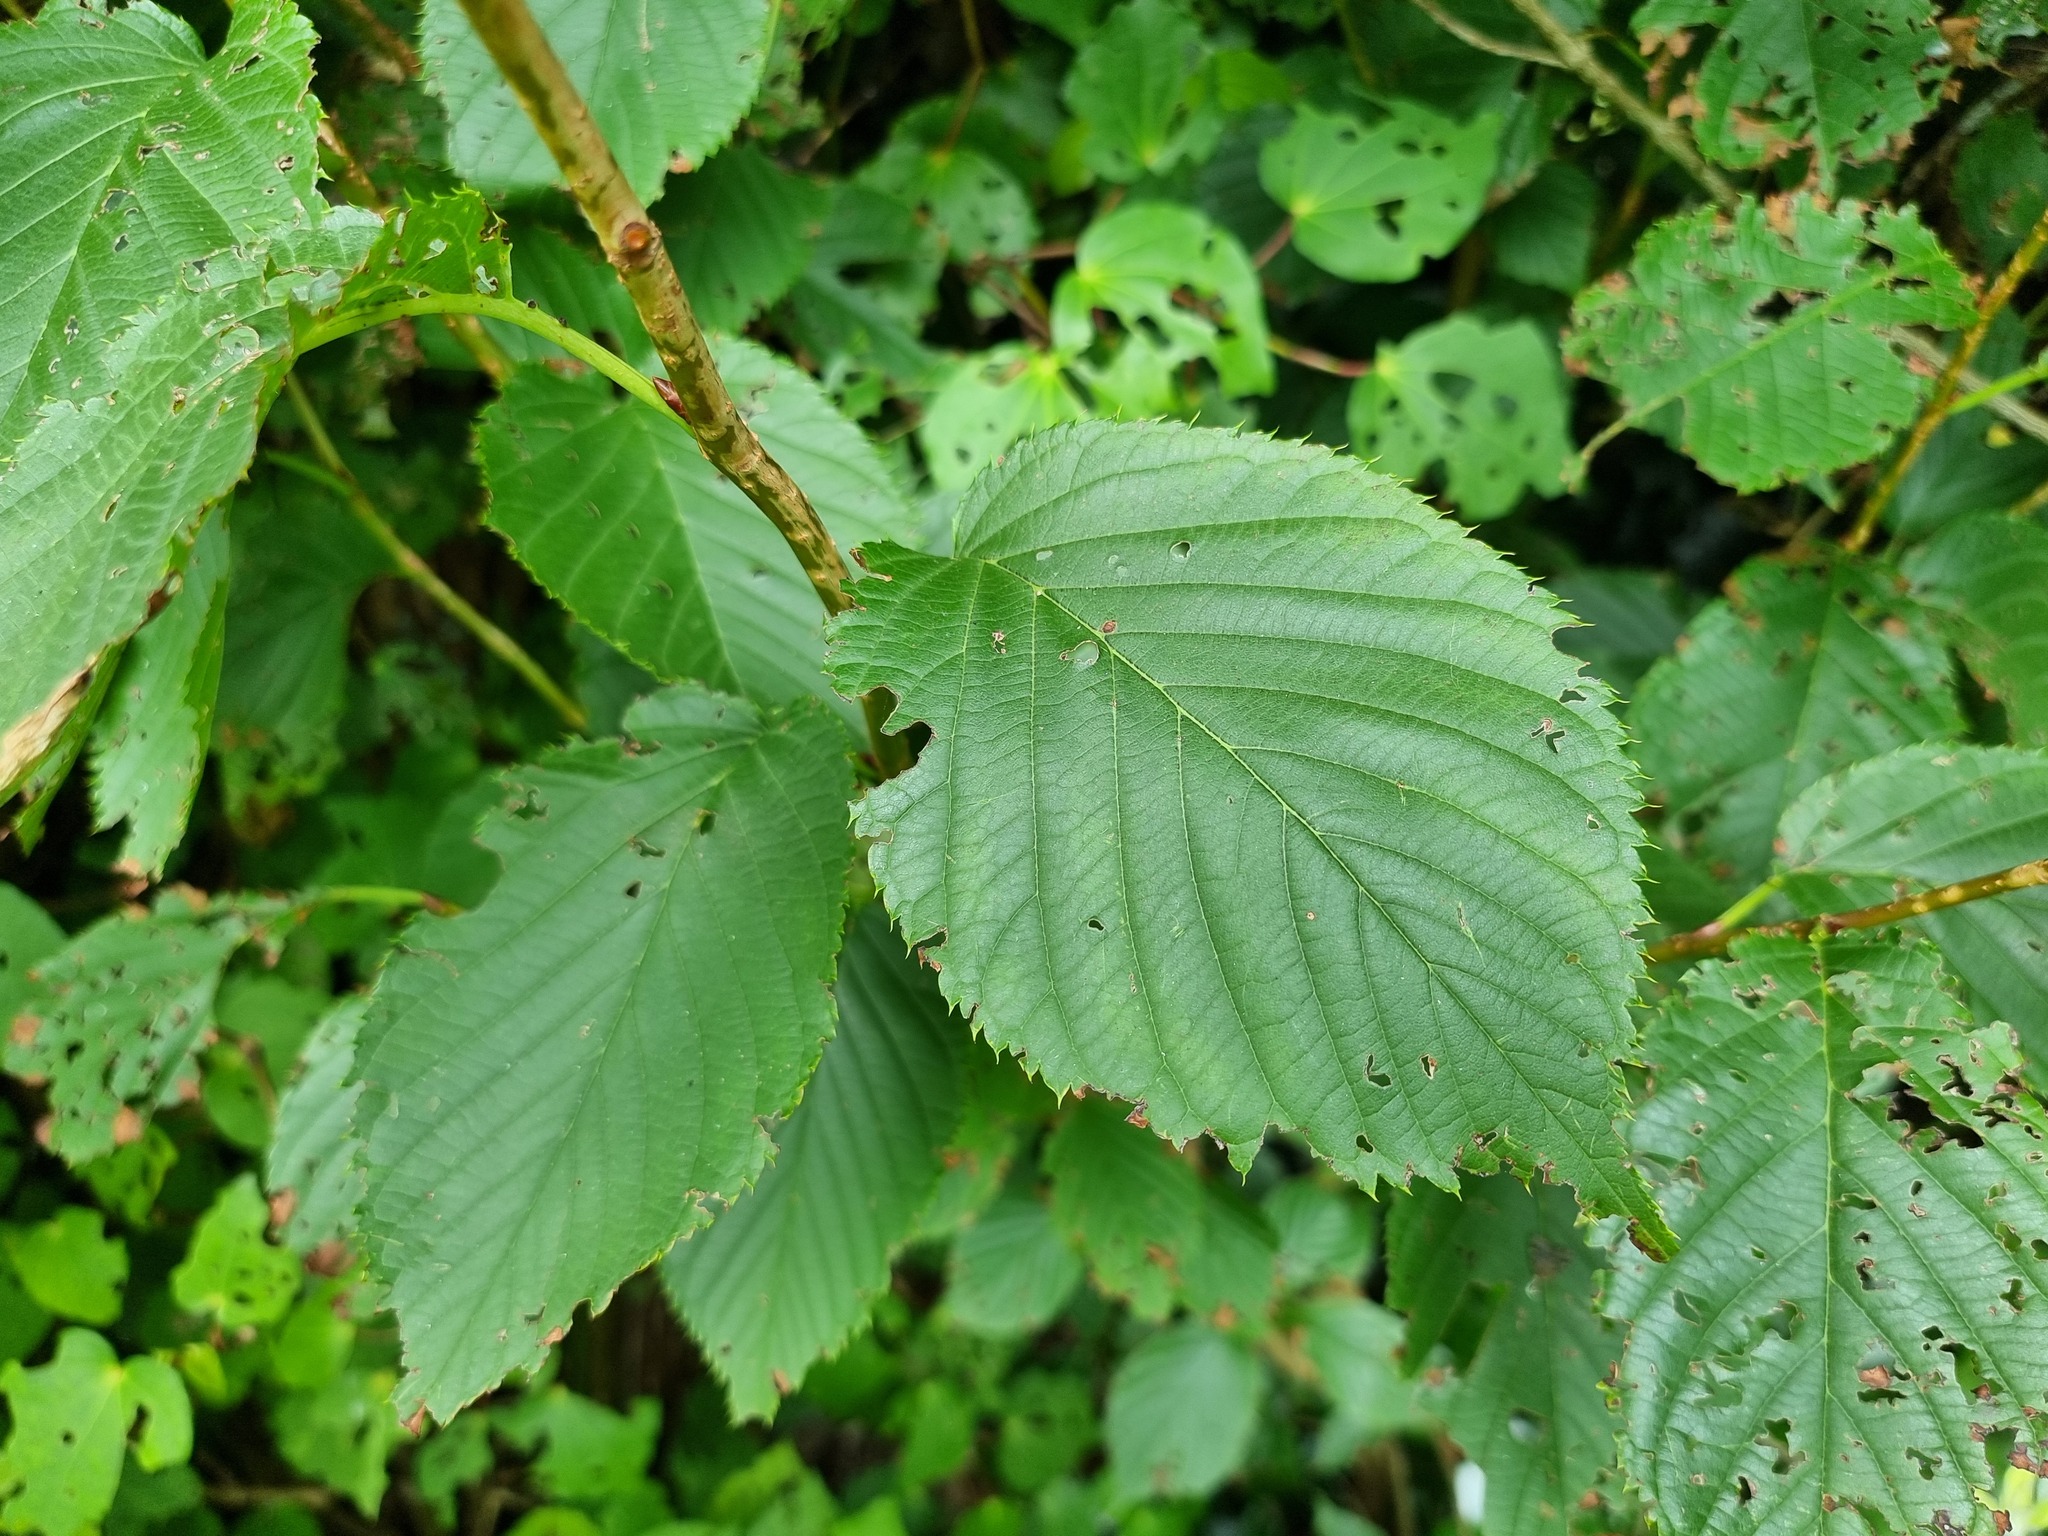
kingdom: Plantae
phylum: Tracheophyta
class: Magnoliopsida
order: Rosales
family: Rosaceae
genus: Prunus
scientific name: Prunus serrulata
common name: Japanese cherry
